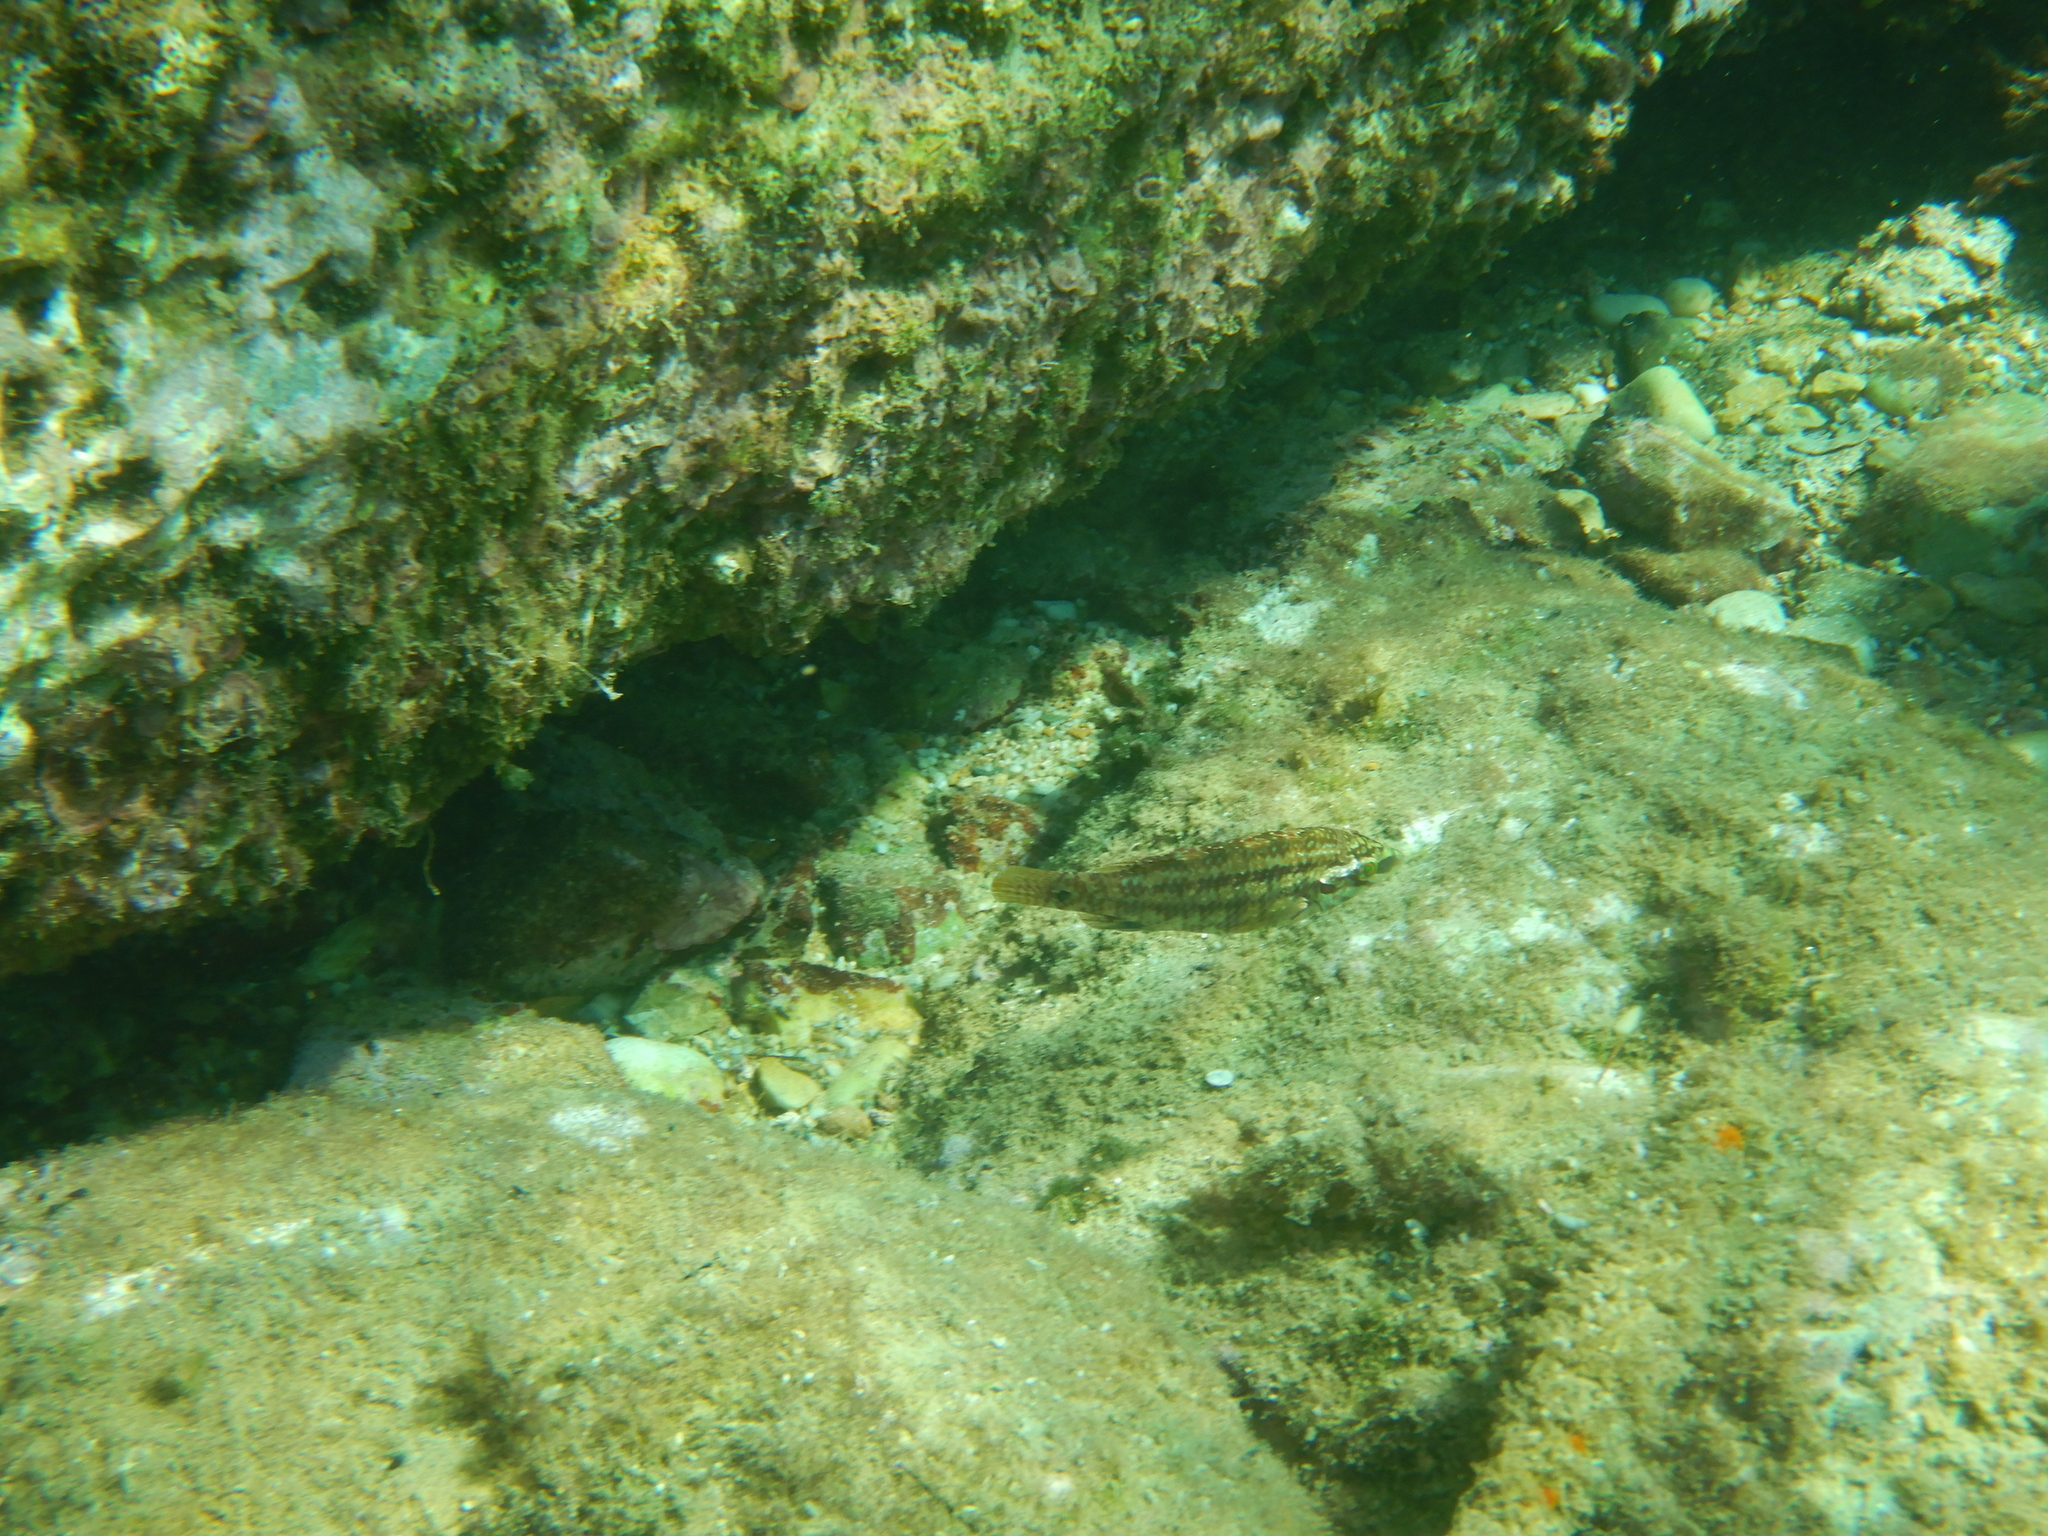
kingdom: Animalia
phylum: Chordata
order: Perciformes
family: Labridae
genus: Symphodus
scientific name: Symphodus roissali
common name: Five-spotted wrasse
